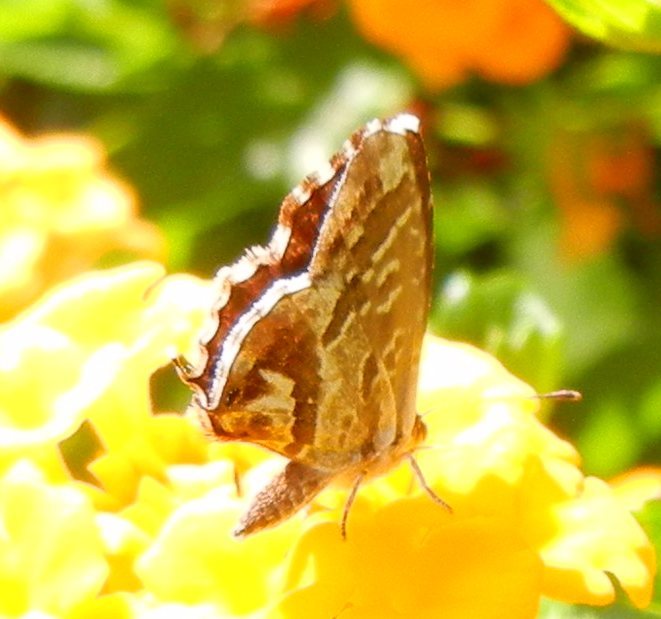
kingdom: Animalia
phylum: Arthropoda
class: Insecta
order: Lepidoptera
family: Lycaenidae
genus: Cacyreus
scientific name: Cacyreus marshalli
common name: Geranium bronze
